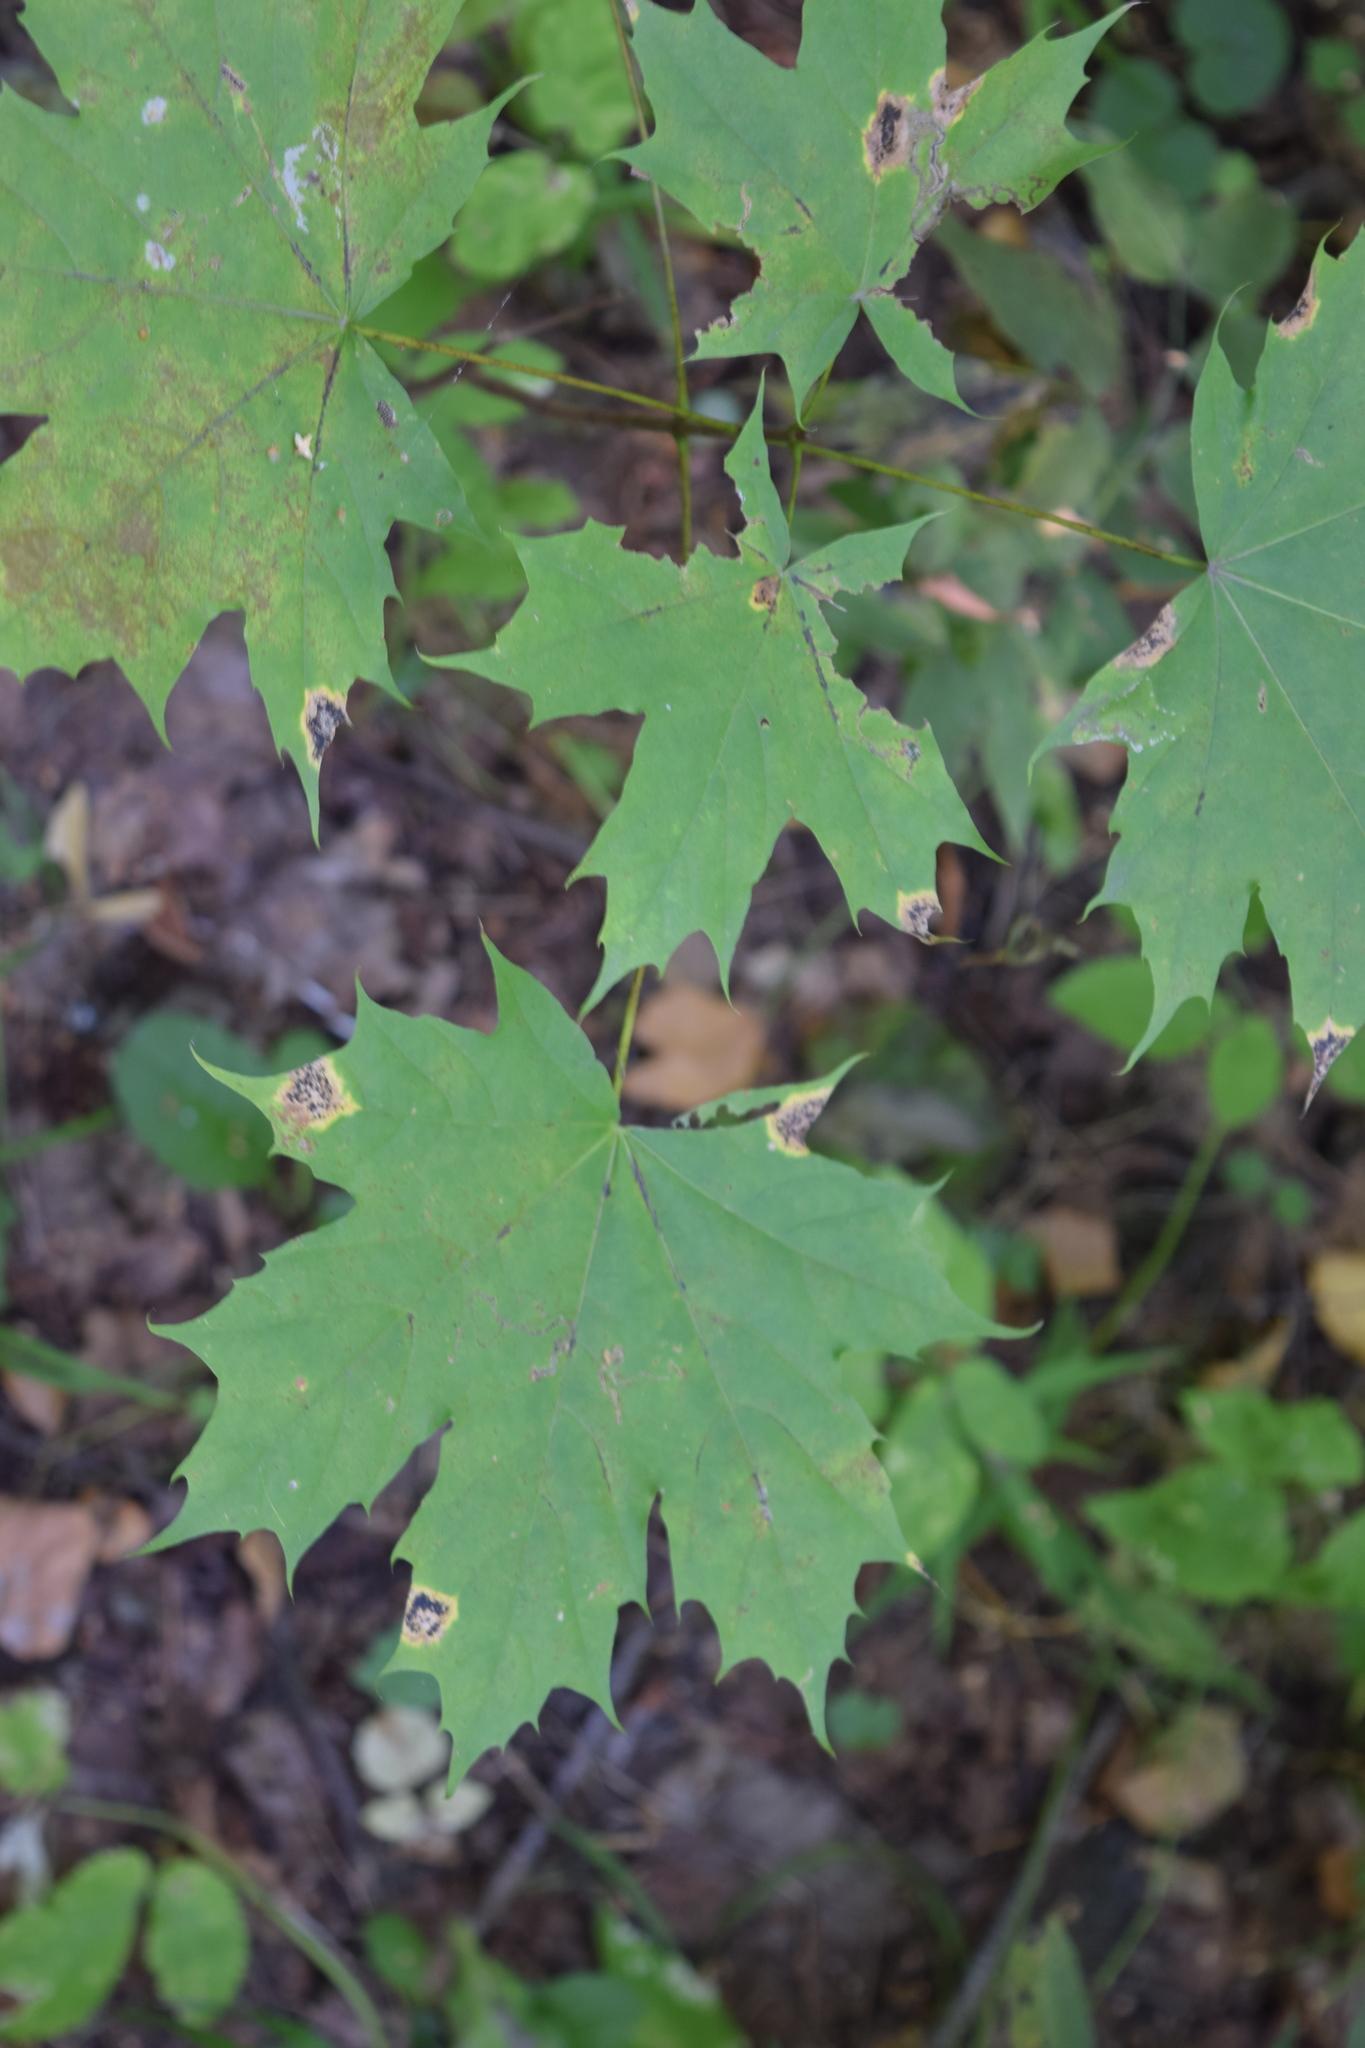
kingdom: Plantae
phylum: Tracheophyta
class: Magnoliopsida
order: Sapindales
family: Sapindaceae
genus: Acer
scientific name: Acer platanoides
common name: Norway maple
